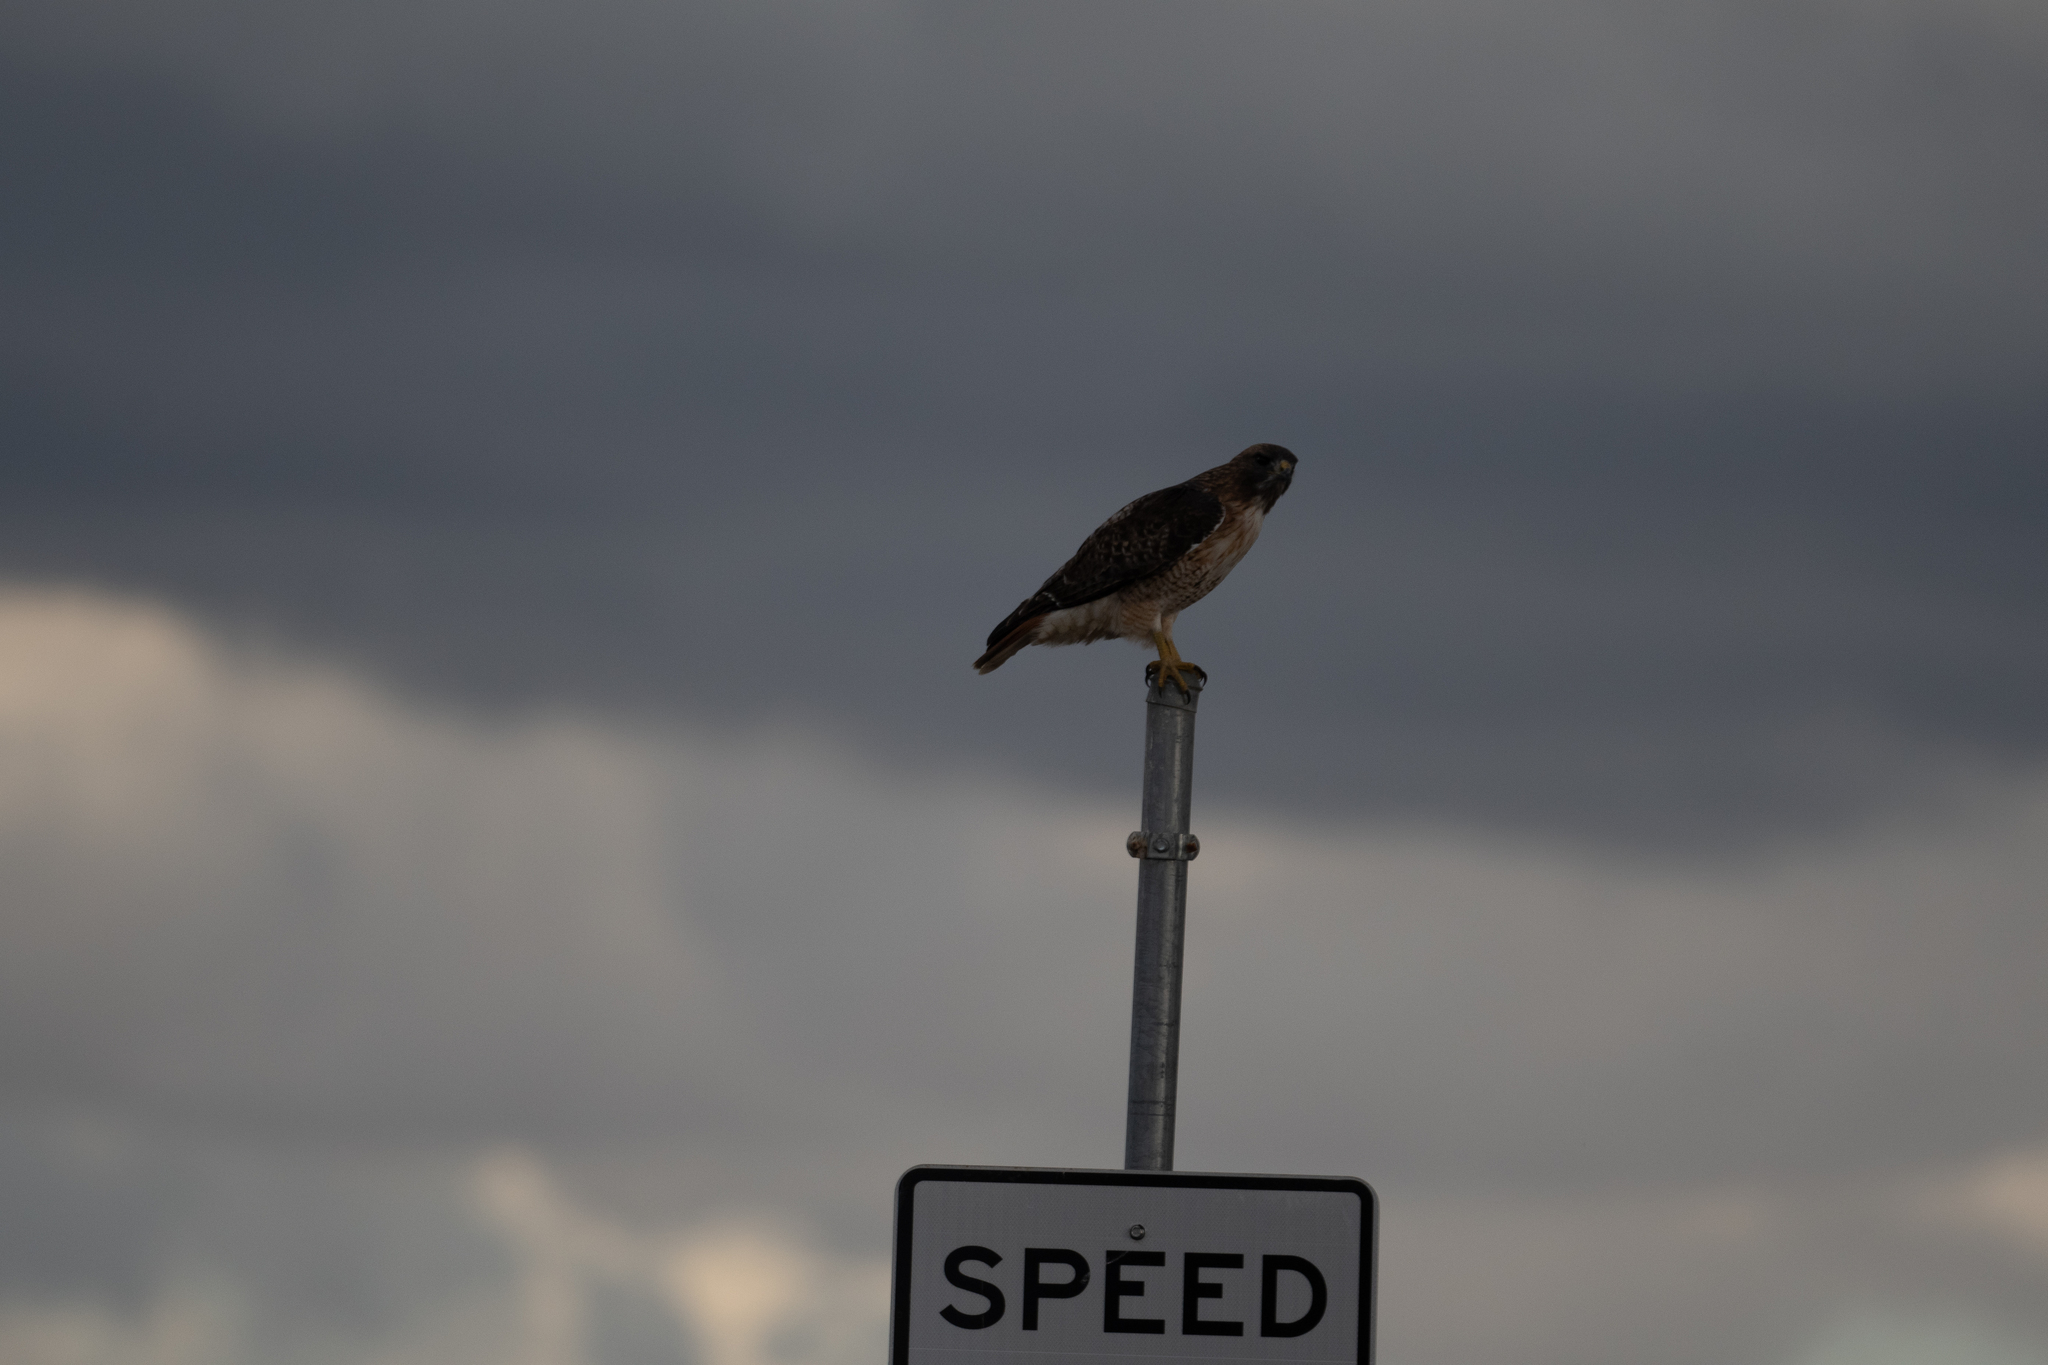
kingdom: Animalia
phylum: Chordata
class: Aves
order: Accipitriformes
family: Accipitridae
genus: Buteo
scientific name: Buteo jamaicensis
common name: Red-tailed hawk
